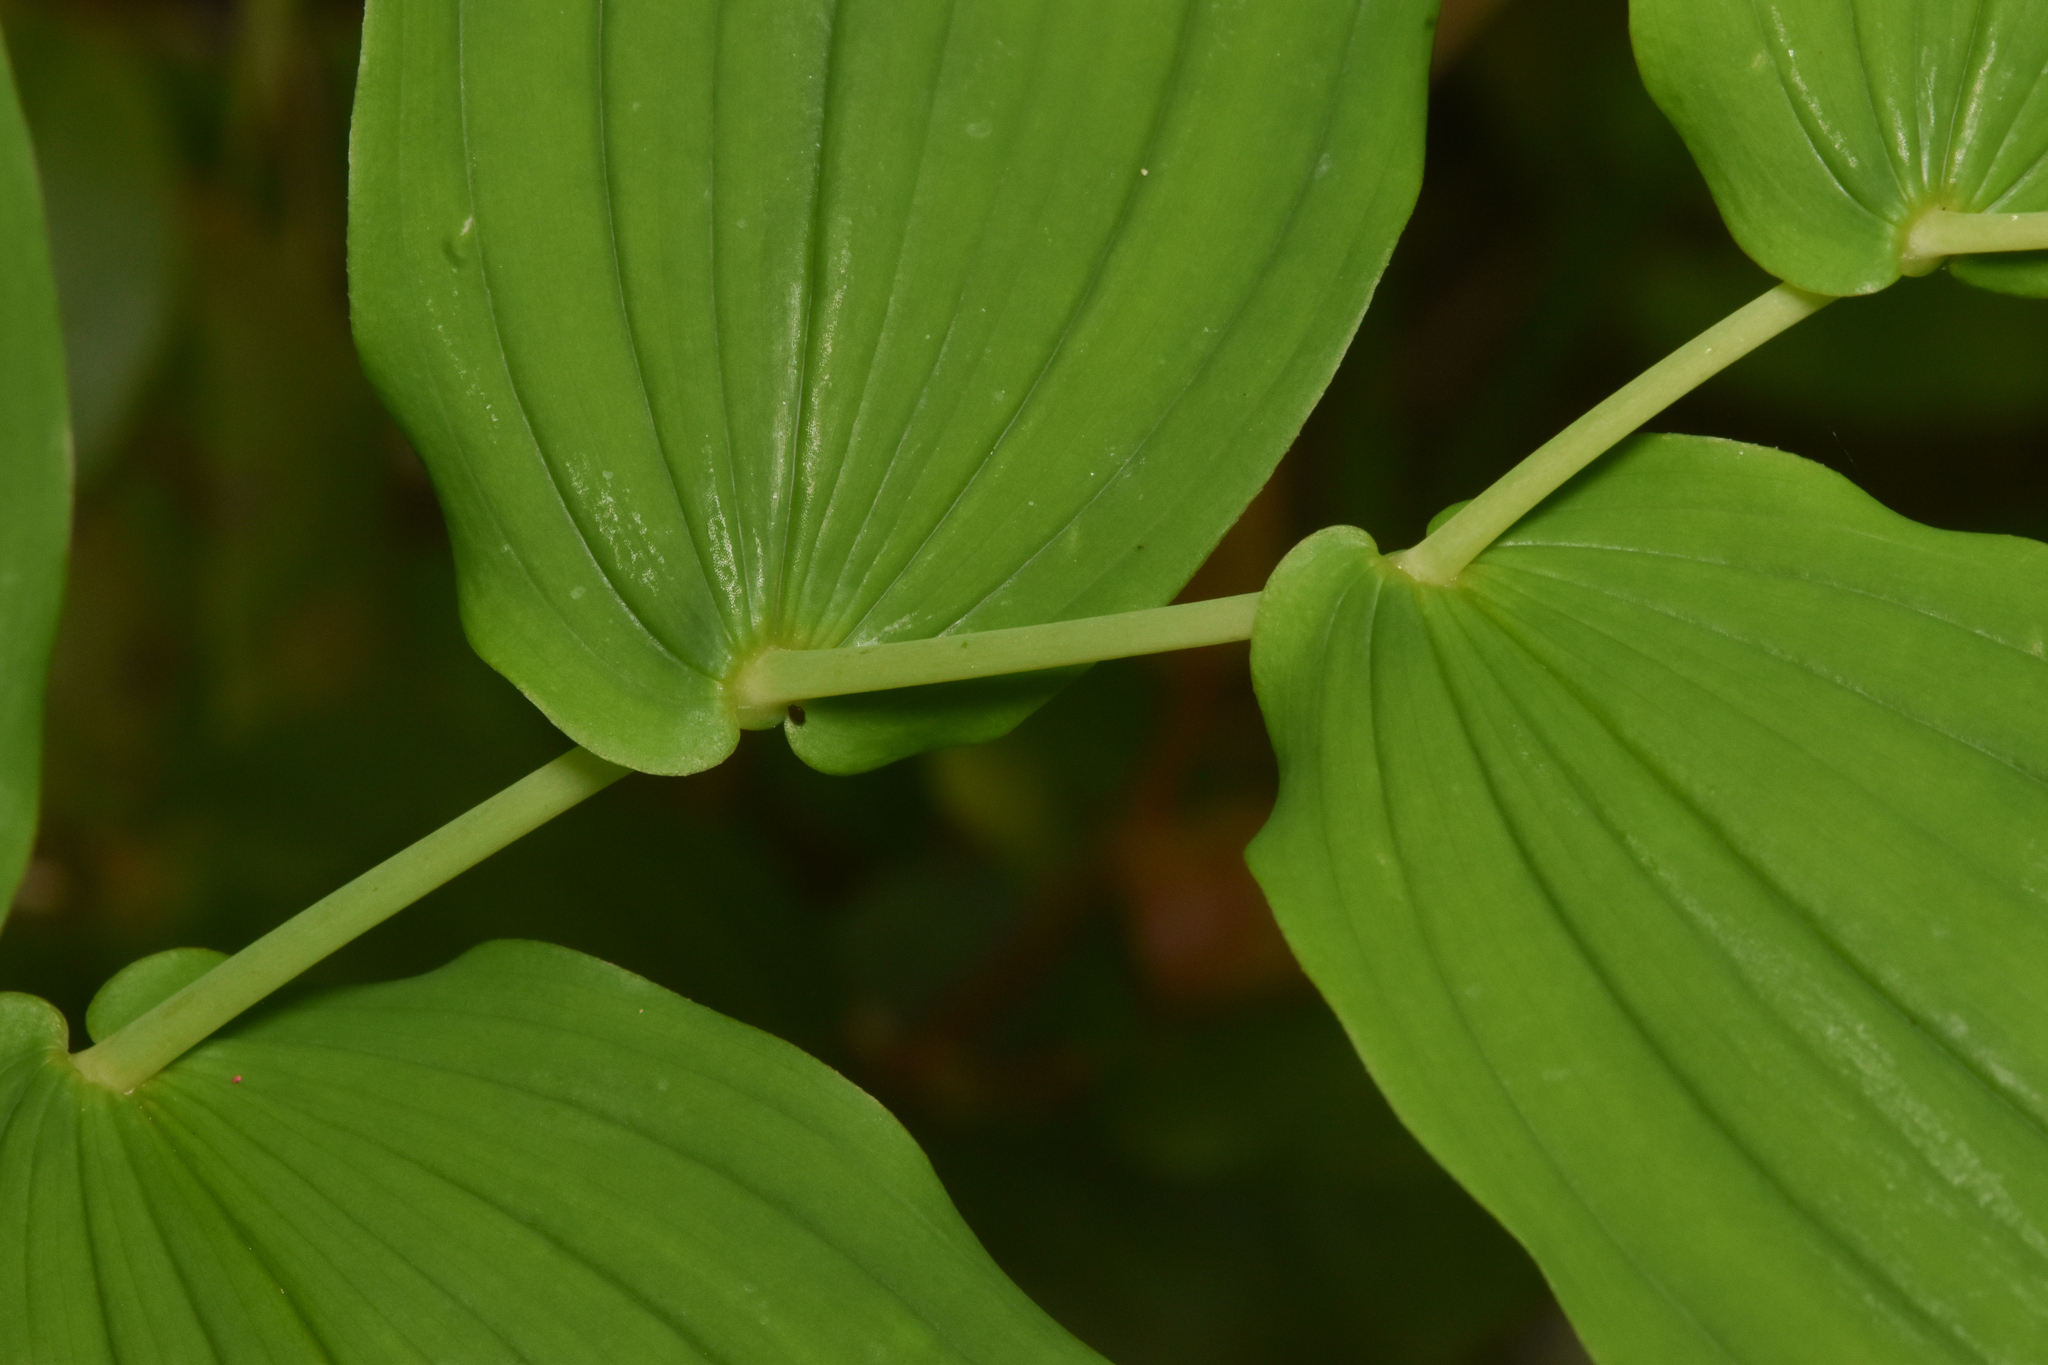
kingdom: Plantae
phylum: Tracheophyta
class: Liliopsida
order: Liliales
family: Liliaceae
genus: Streptopus
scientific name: Streptopus amplexifolius
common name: Clasp twisted stalk
